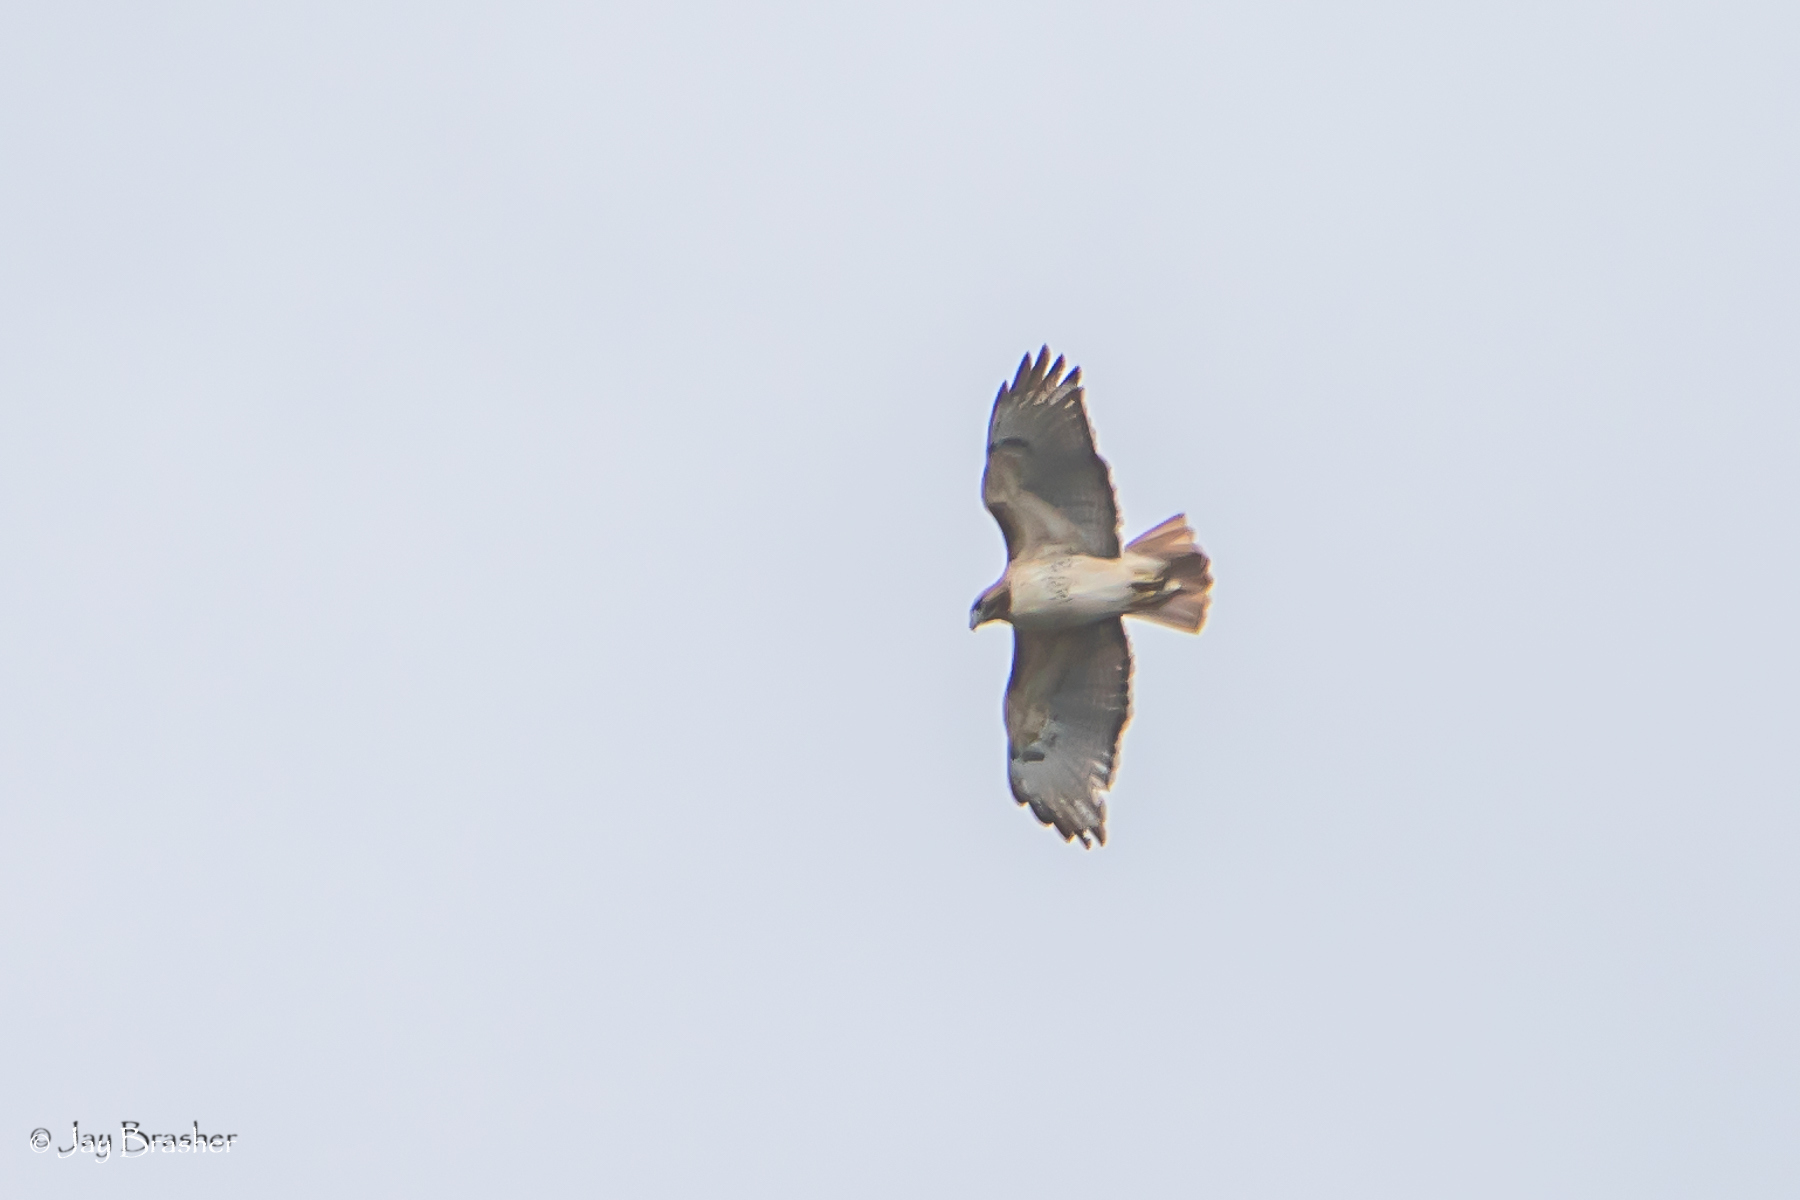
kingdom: Animalia
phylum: Chordata
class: Aves
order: Accipitriformes
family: Accipitridae
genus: Buteo
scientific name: Buteo jamaicensis
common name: Red-tailed hawk
